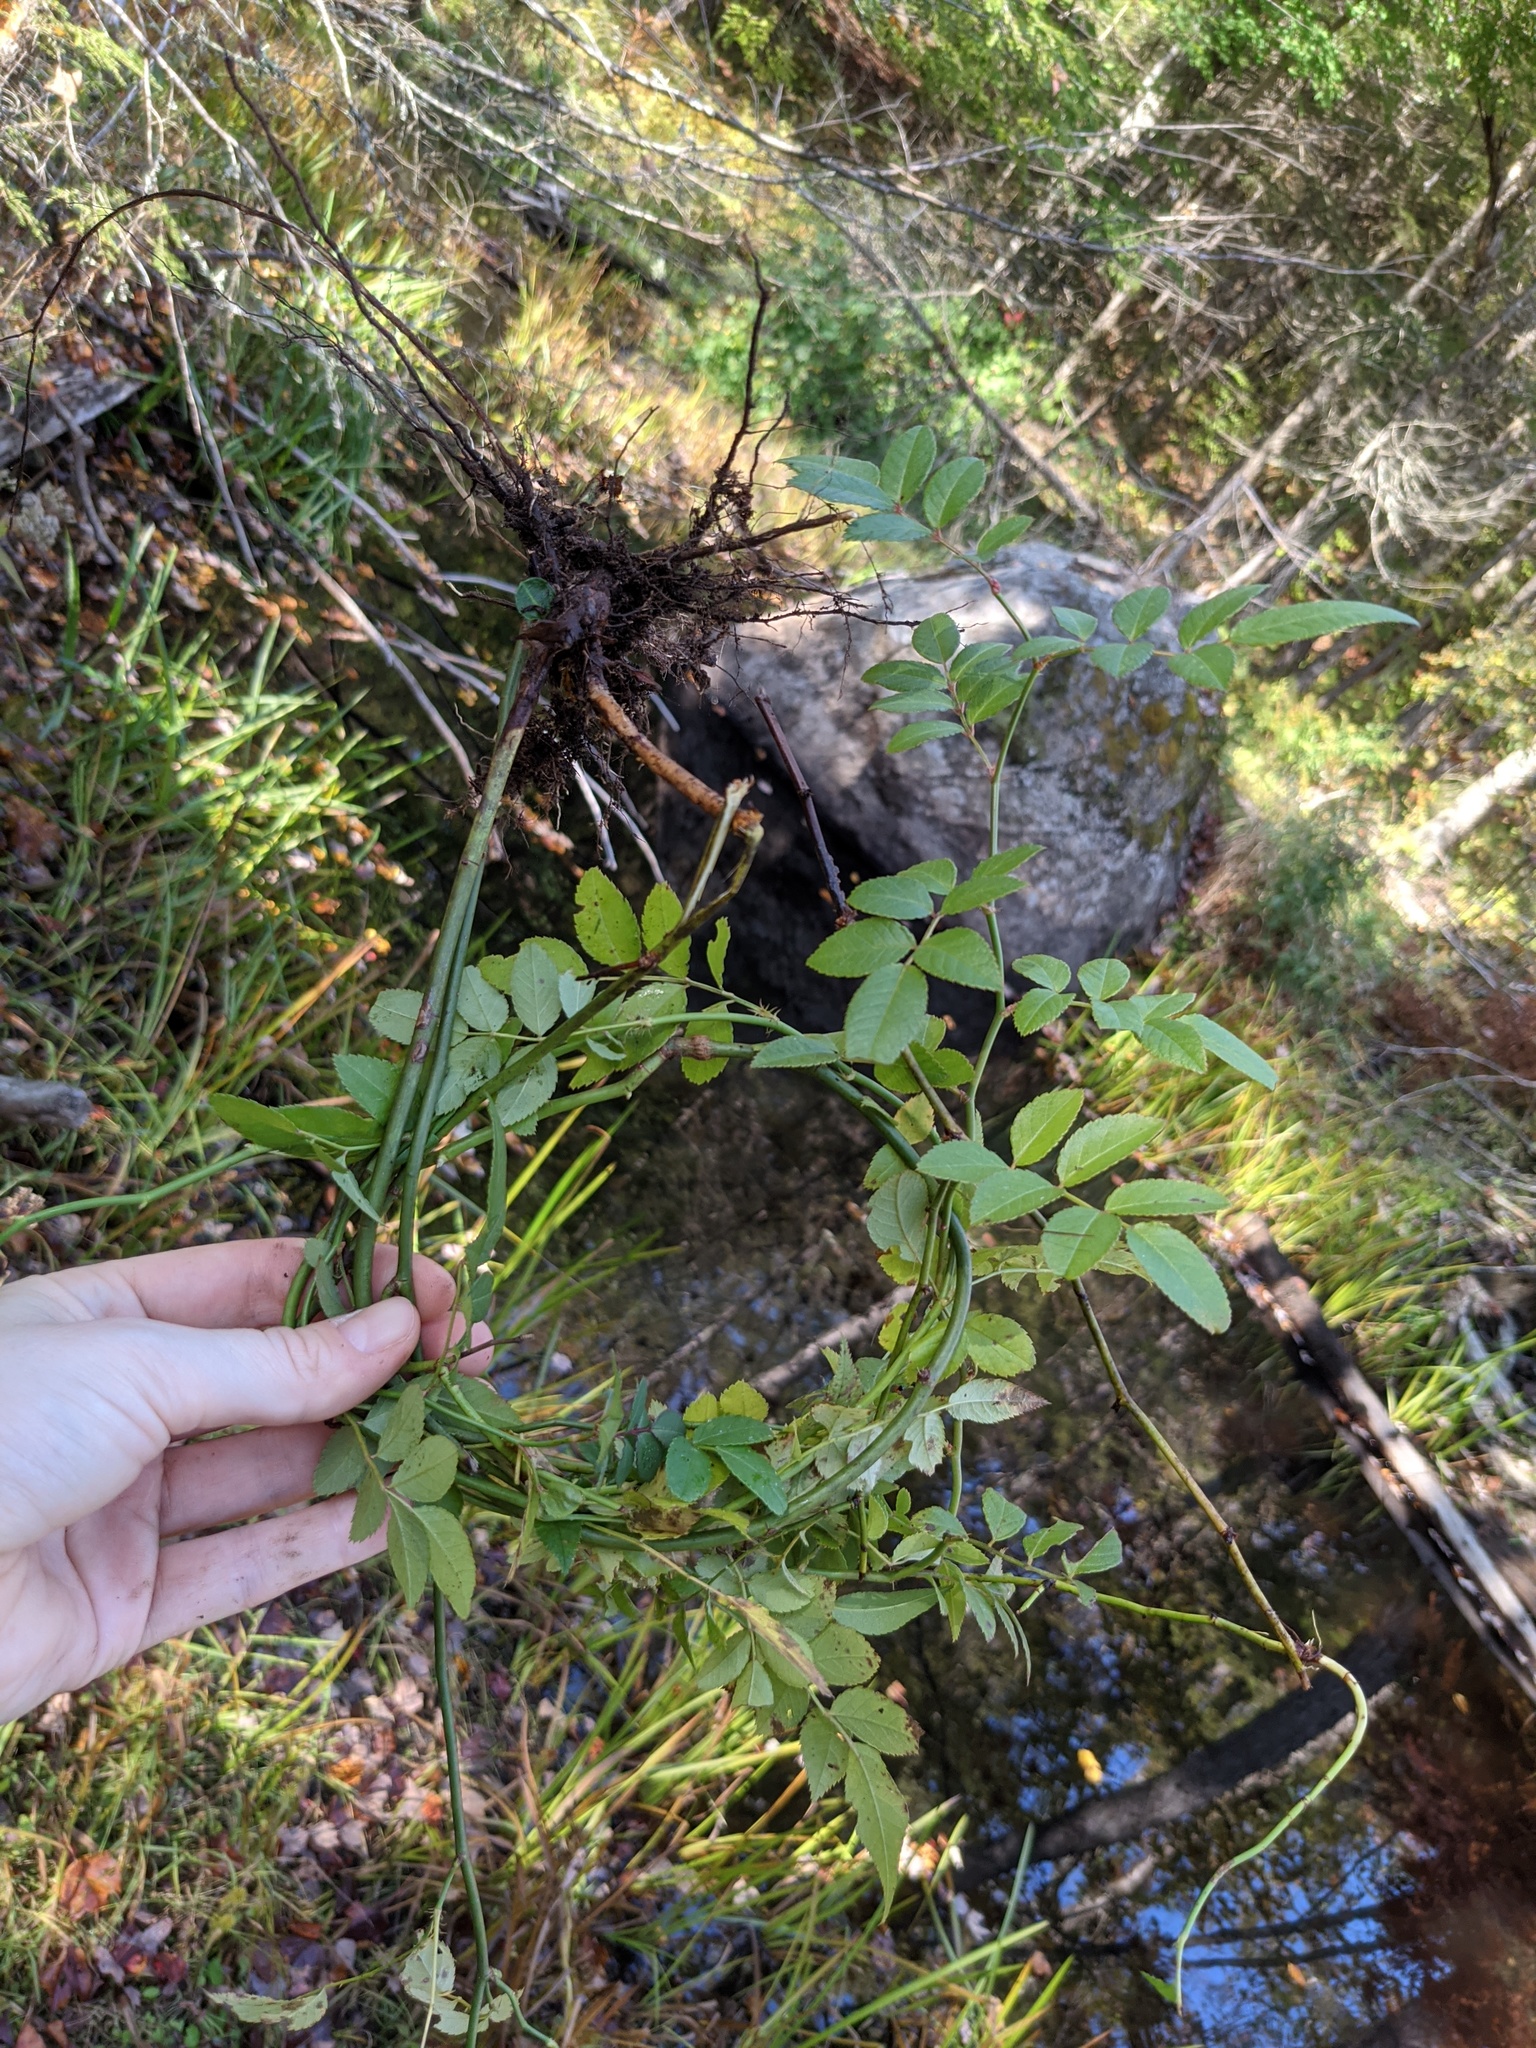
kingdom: Plantae
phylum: Tracheophyta
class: Magnoliopsida
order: Rosales
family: Rosaceae
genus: Rosa
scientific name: Rosa multiflora
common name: Multiflora rose
